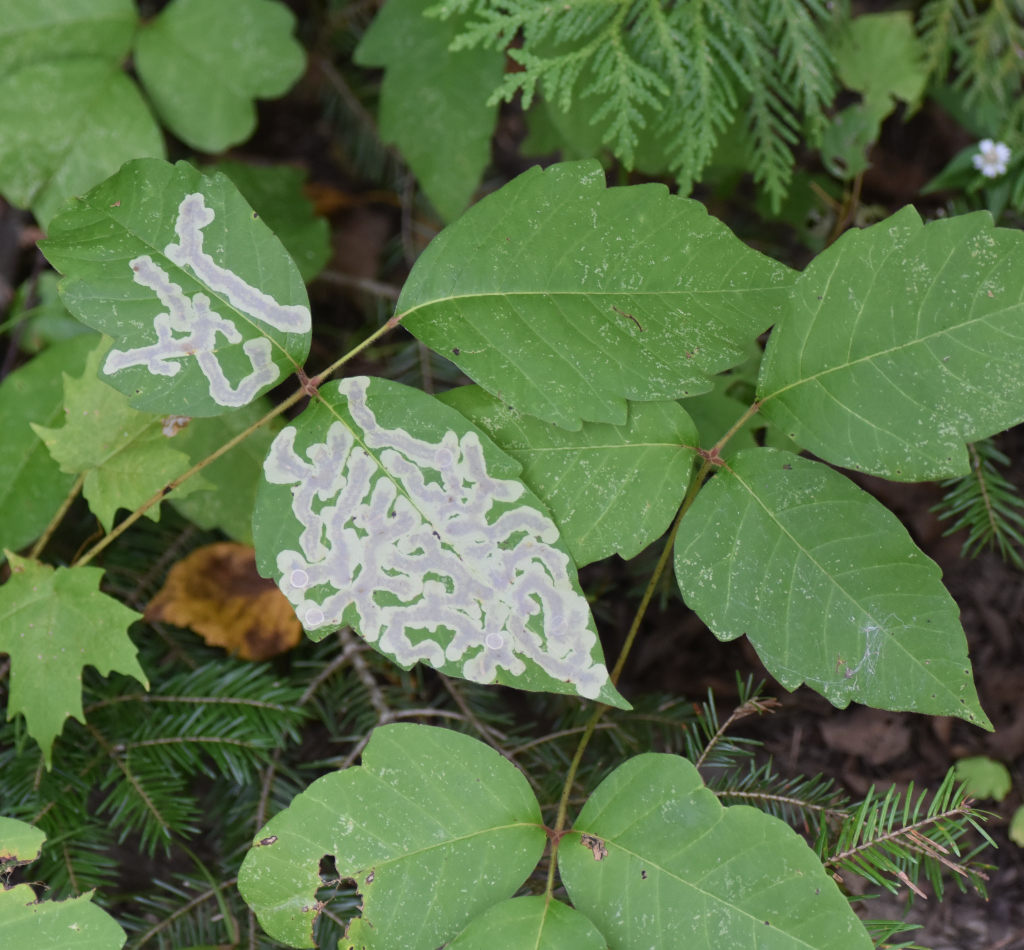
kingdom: Animalia
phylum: Arthropoda
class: Insecta
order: Lepidoptera
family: Gracillariidae
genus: Cameraria
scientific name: Cameraria guttifinitella
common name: Poison ivy leaf-miner moth
